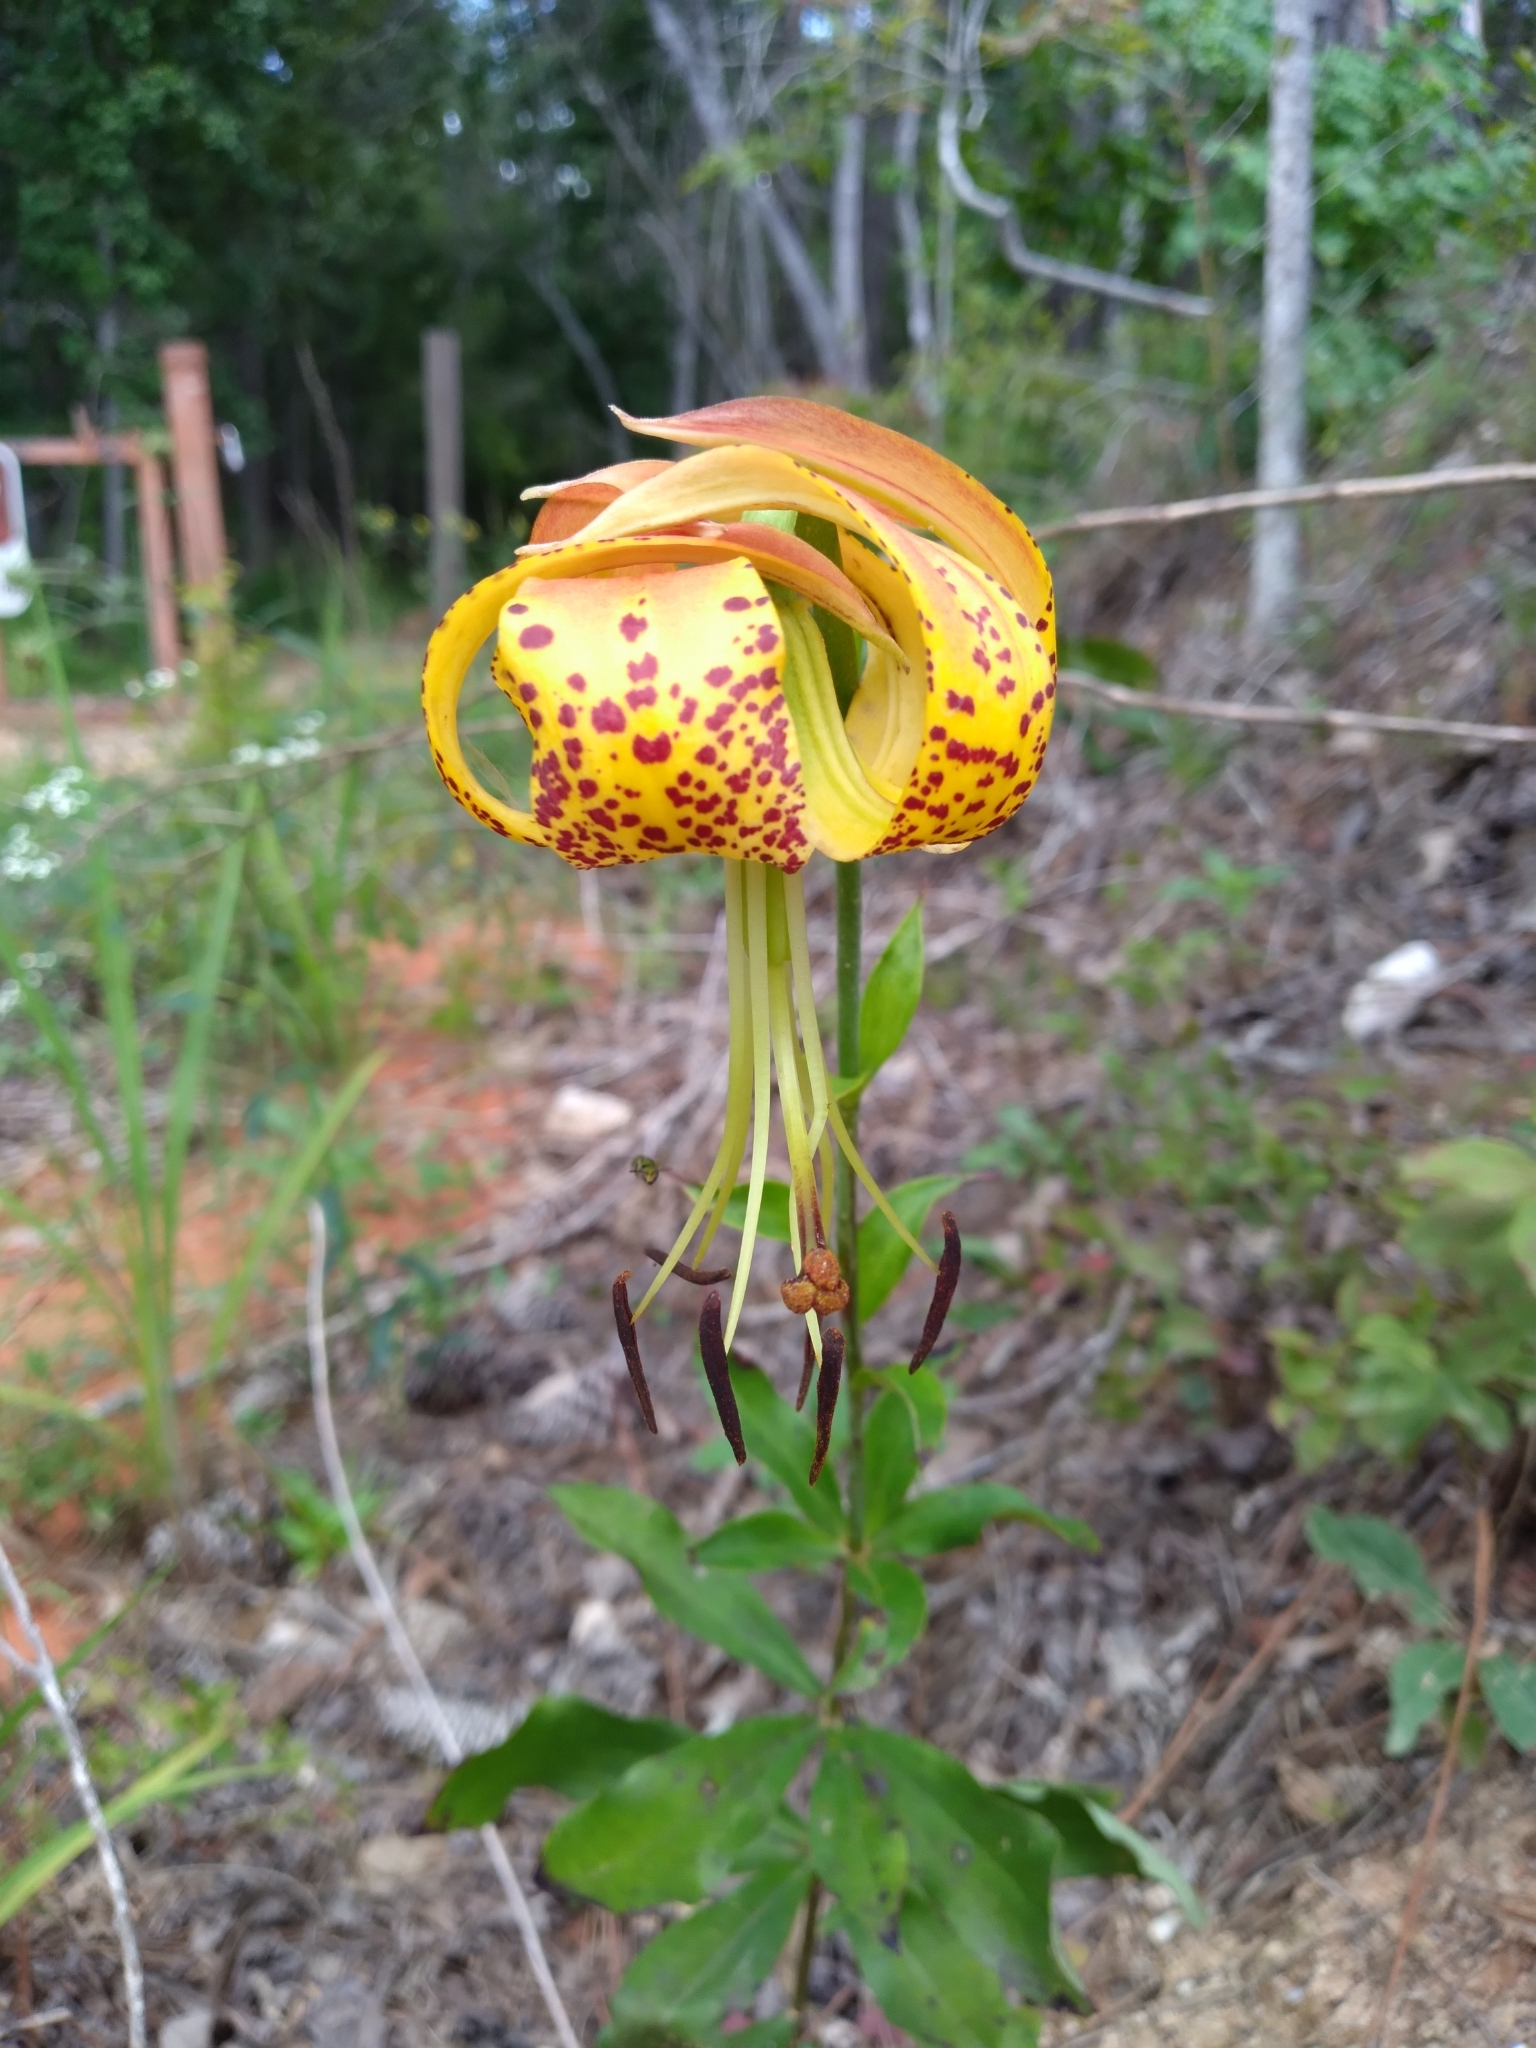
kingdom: Plantae
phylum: Tracheophyta
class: Liliopsida
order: Liliales
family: Liliaceae
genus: Lilium
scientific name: Lilium michauxii
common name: Carolina lily
